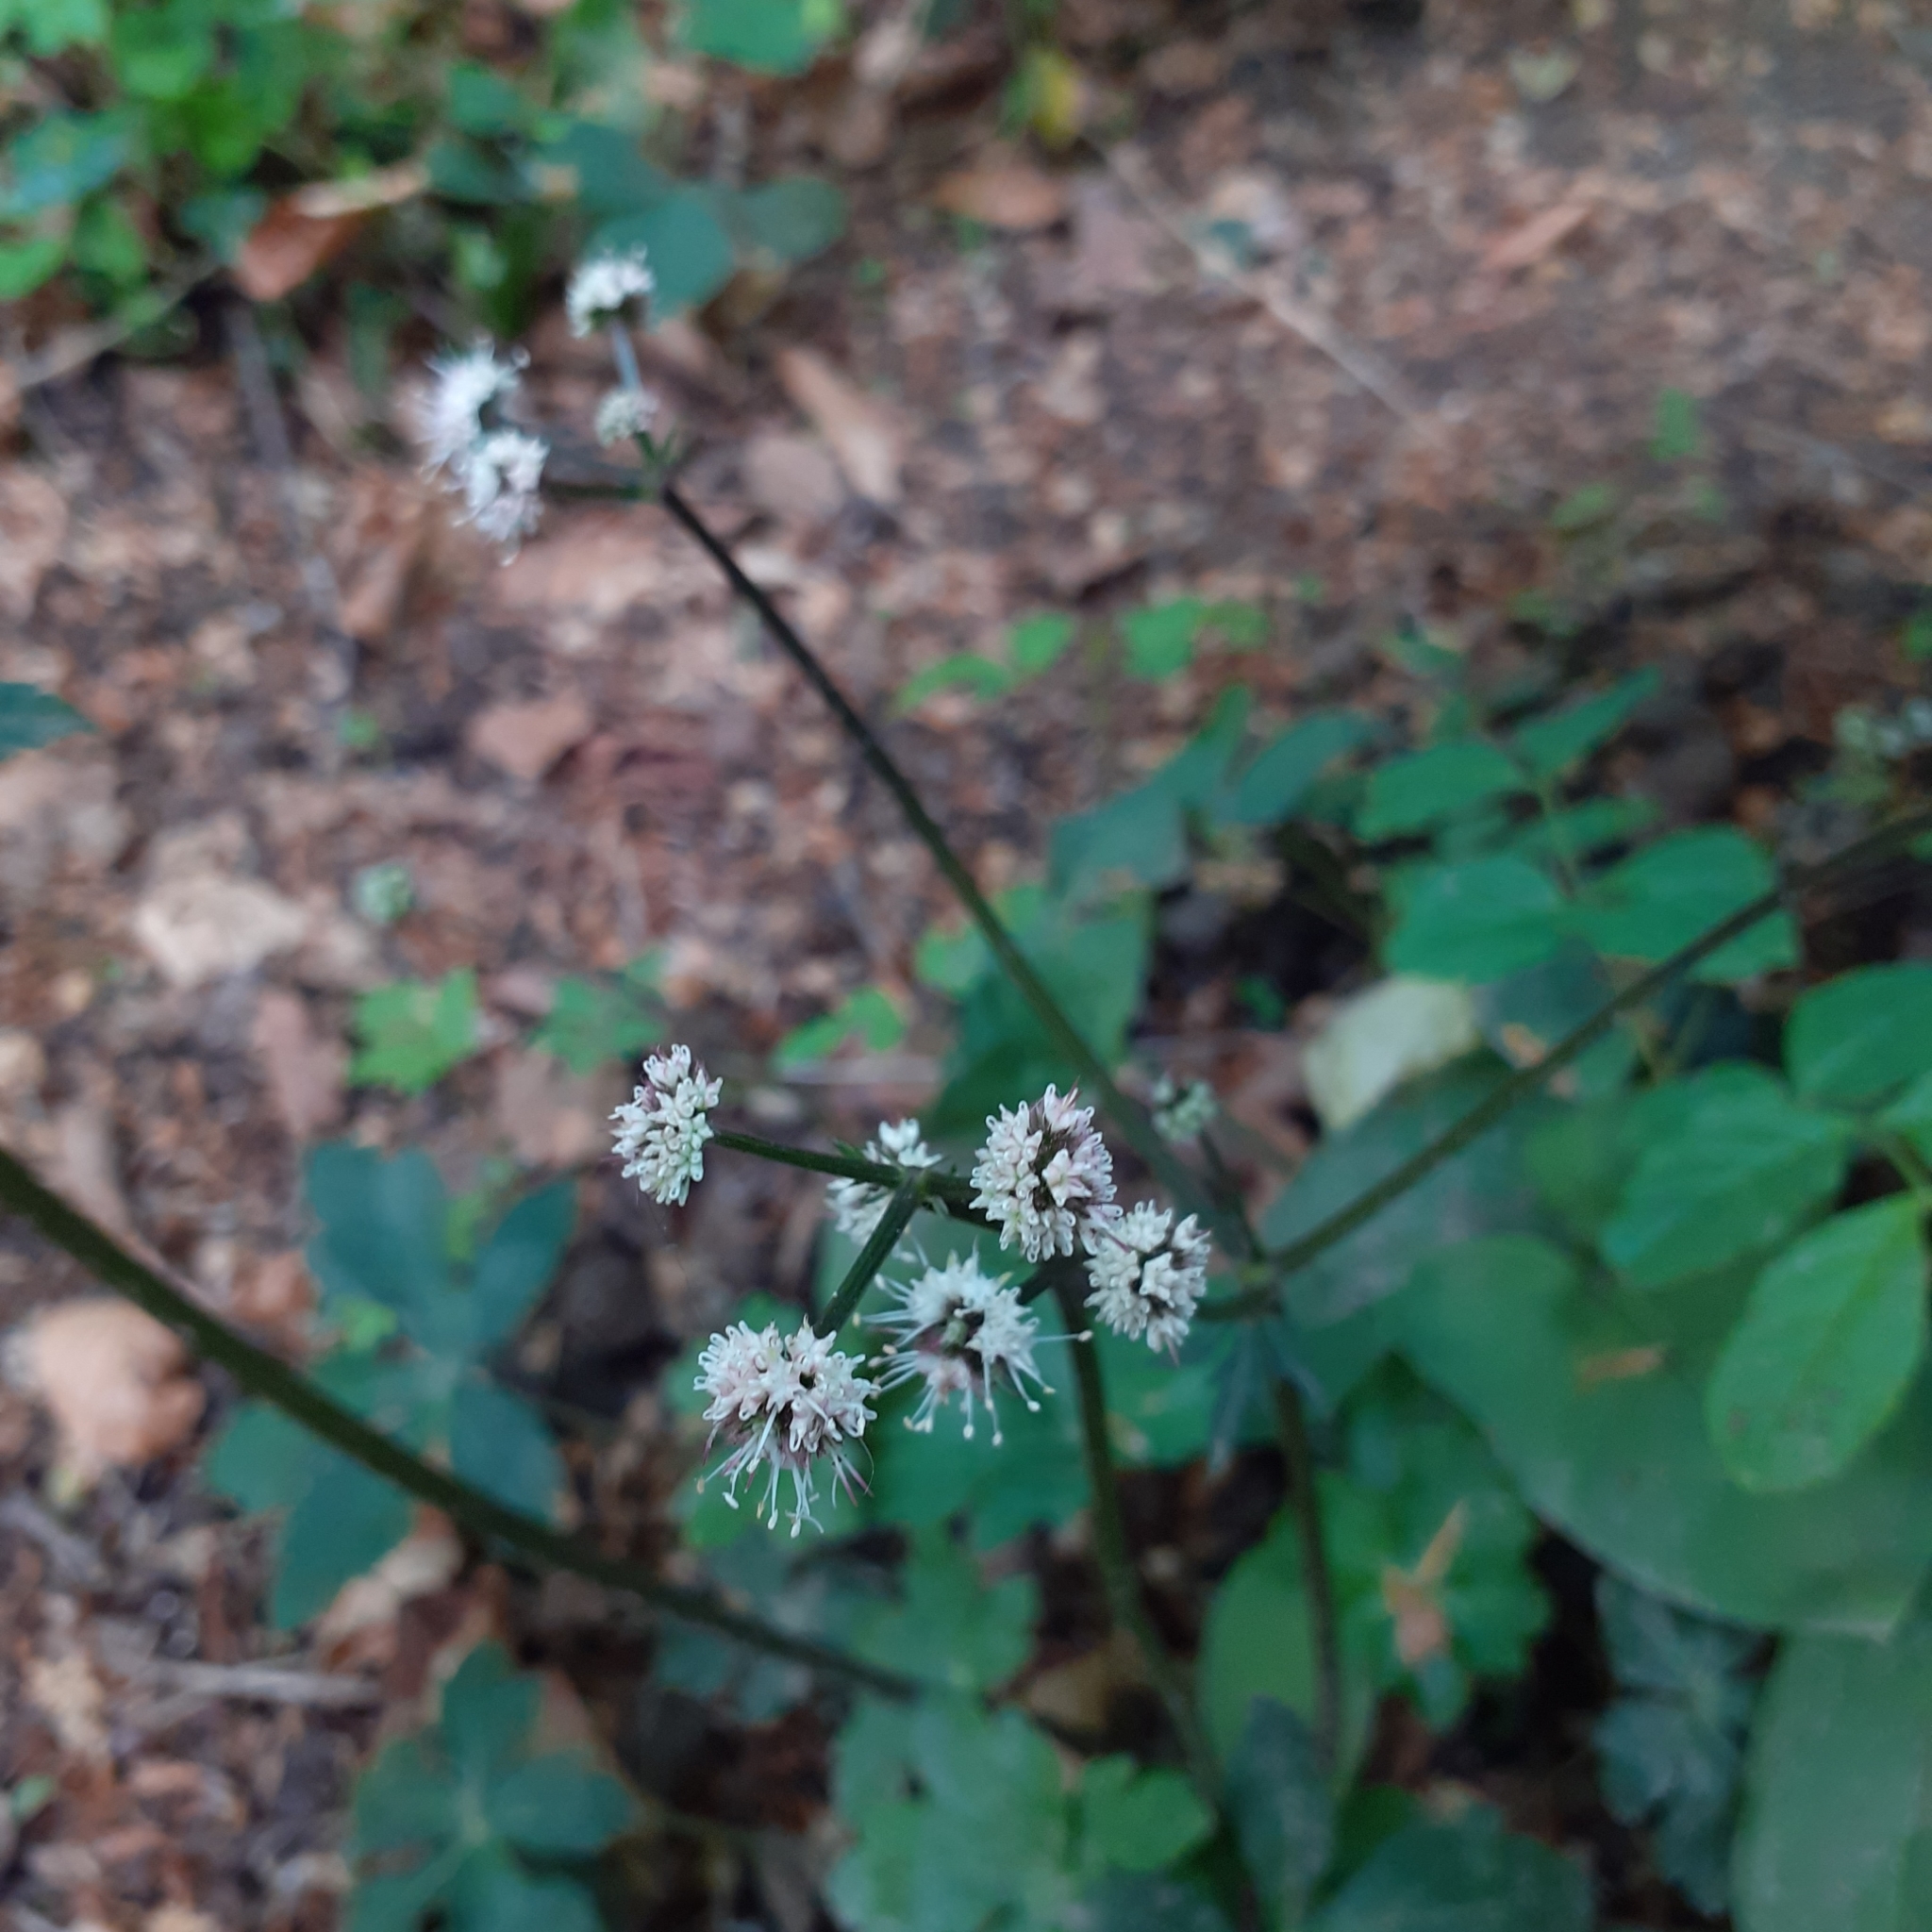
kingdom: Plantae
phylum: Tracheophyta
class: Magnoliopsida
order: Apiales
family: Apiaceae
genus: Sanicula
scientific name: Sanicula europaea
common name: Sanicle
